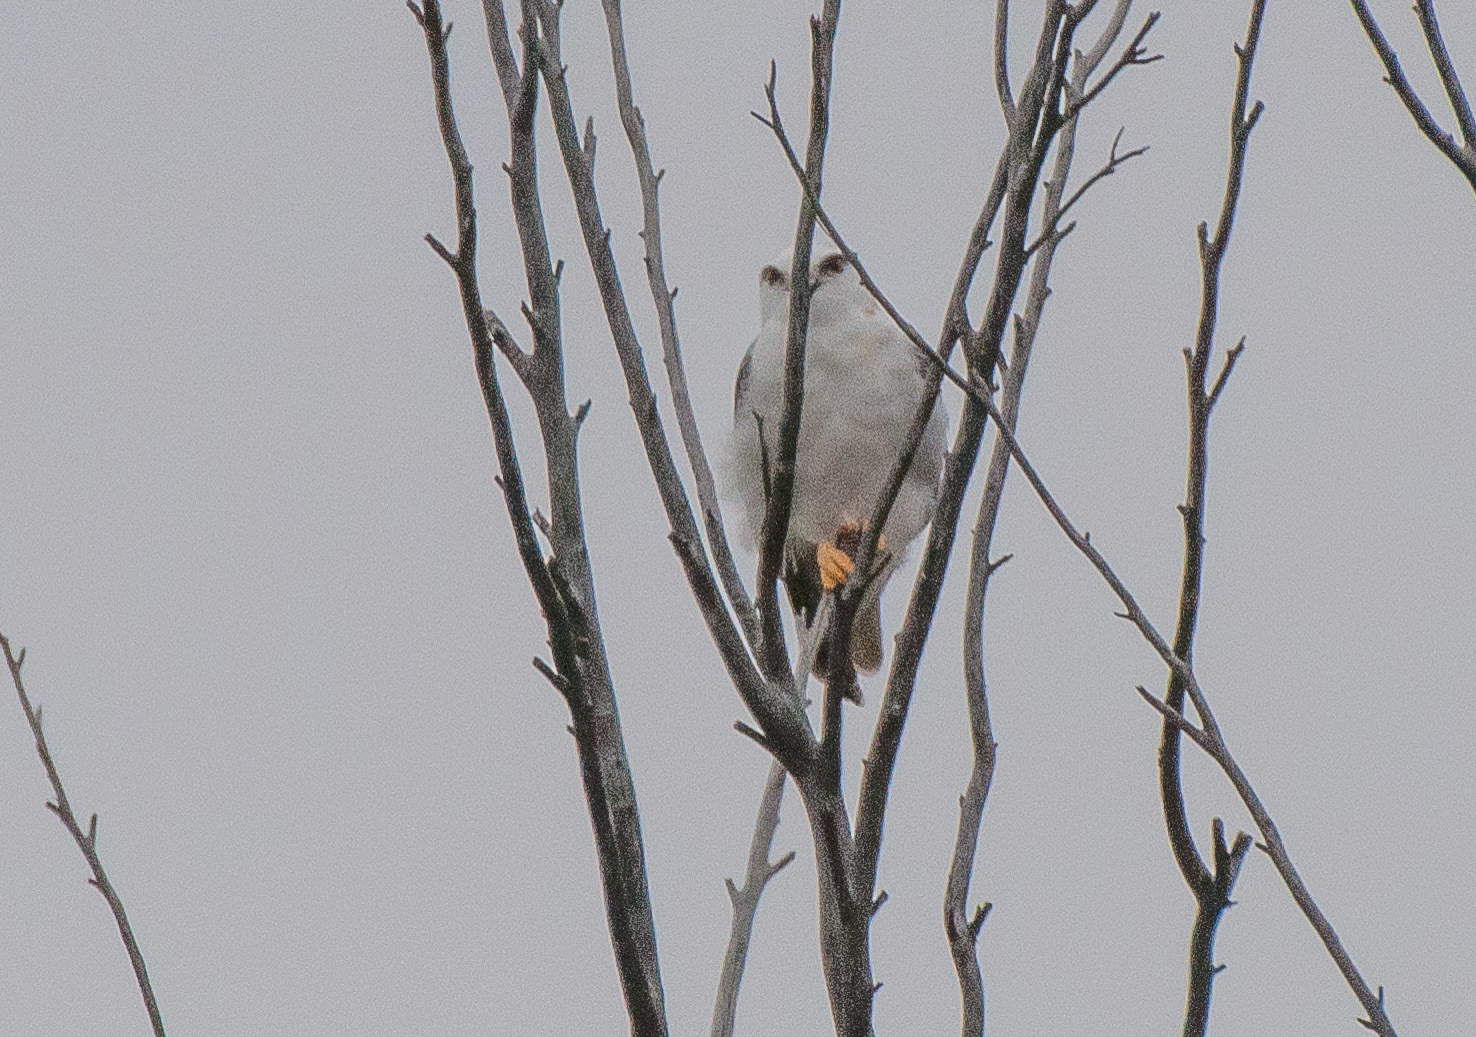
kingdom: Animalia
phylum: Chordata
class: Aves
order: Accipitriformes
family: Accipitridae
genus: Elanus
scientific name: Elanus axillaris
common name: Black-shouldered kite
